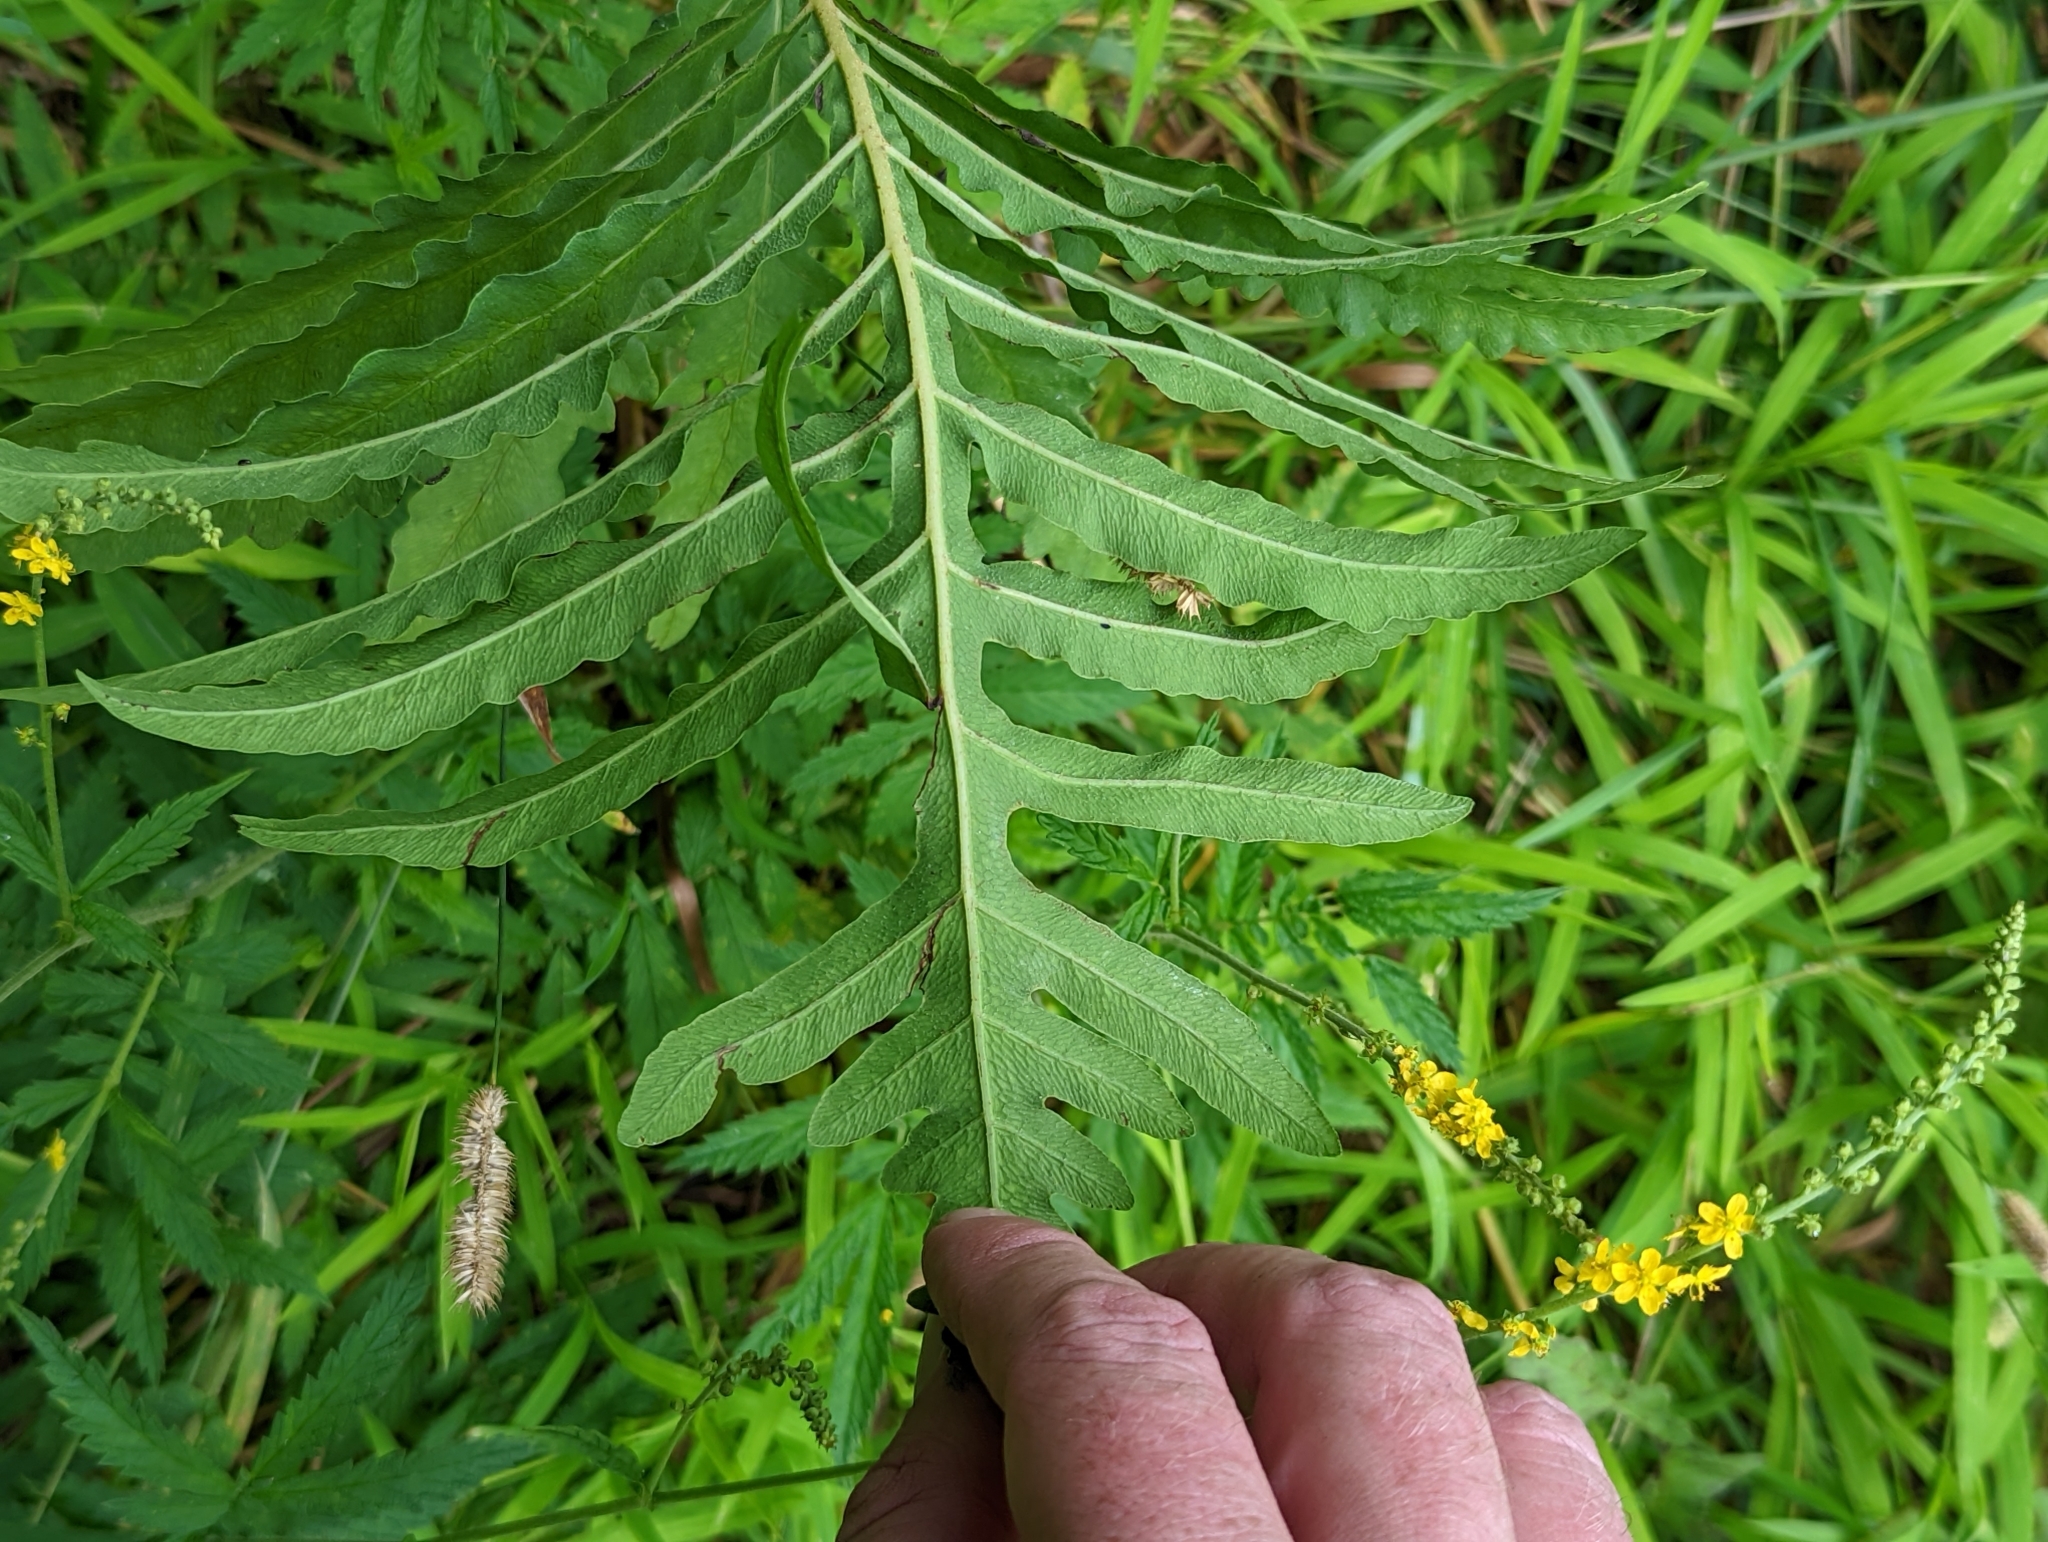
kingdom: Plantae
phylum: Tracheophyta
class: Polypodiopsida
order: Polypodiales
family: Onocleaceae
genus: Onoclea
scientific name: Onoclea sensibilis
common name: Sensitive fern
